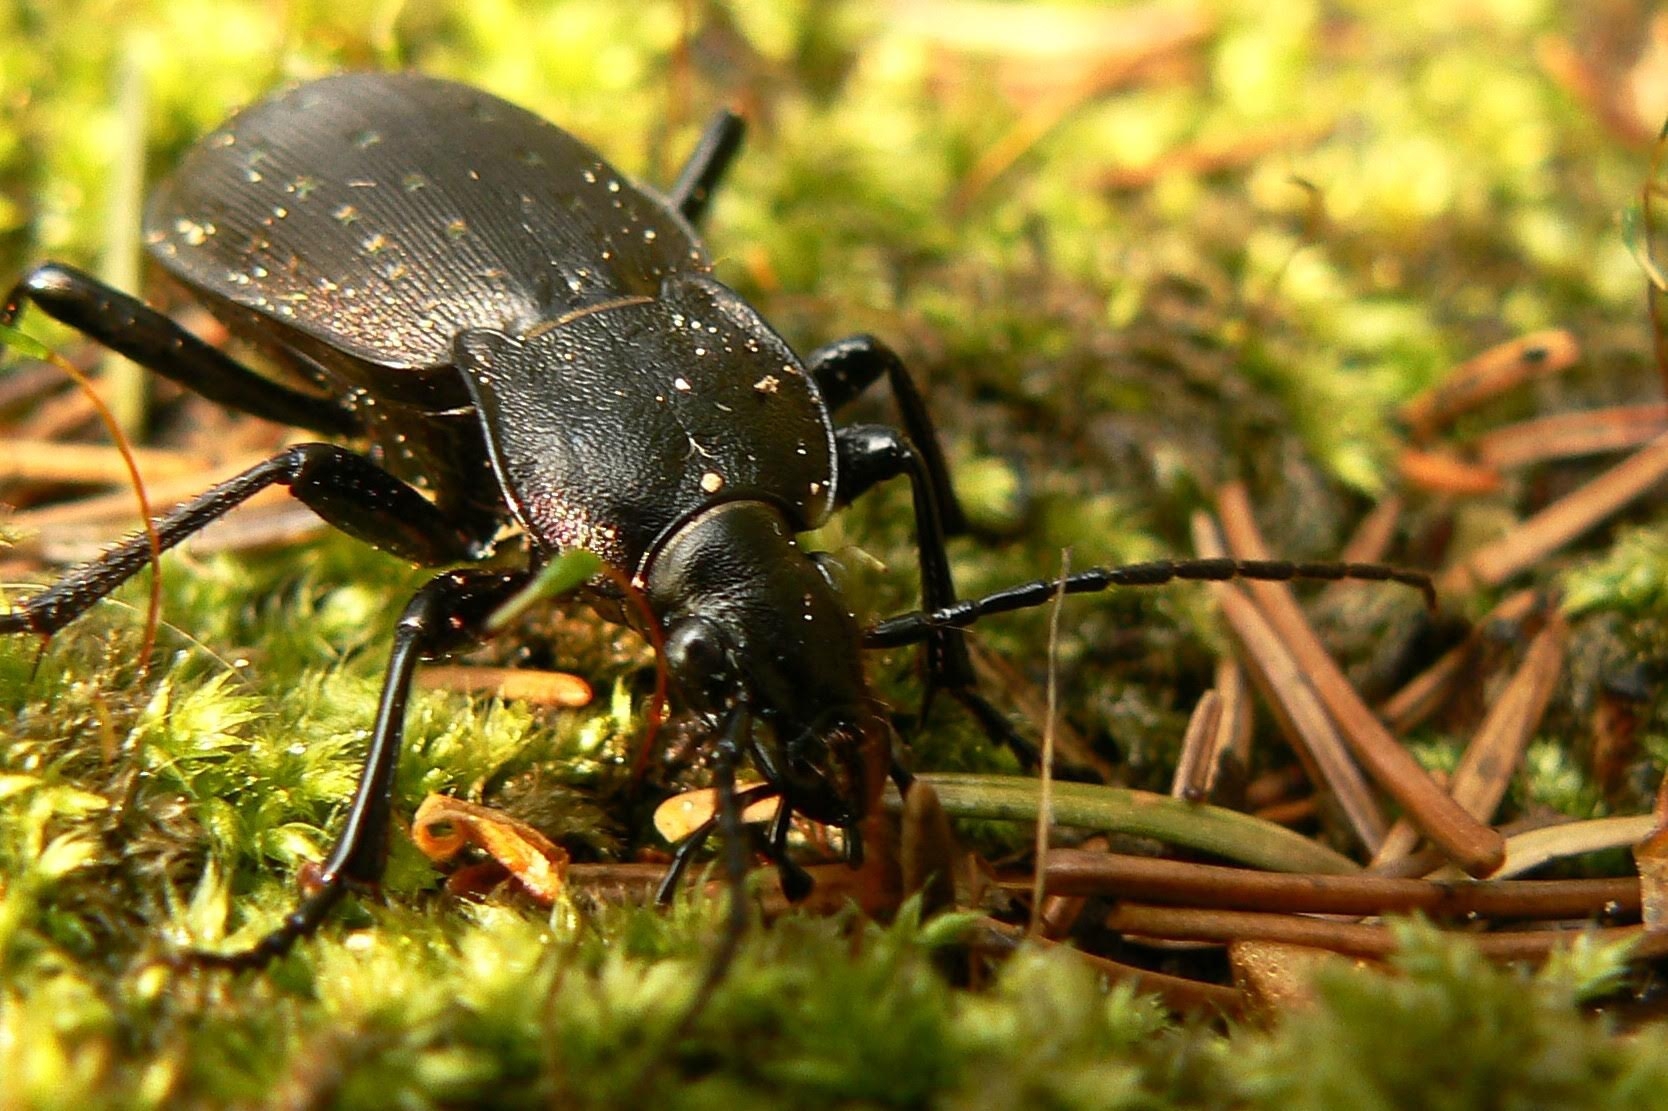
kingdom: Animalia
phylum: Arthropoda
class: Insecta
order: Coleoptera
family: Carabidae
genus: Carabus
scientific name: Carabus hortensis
